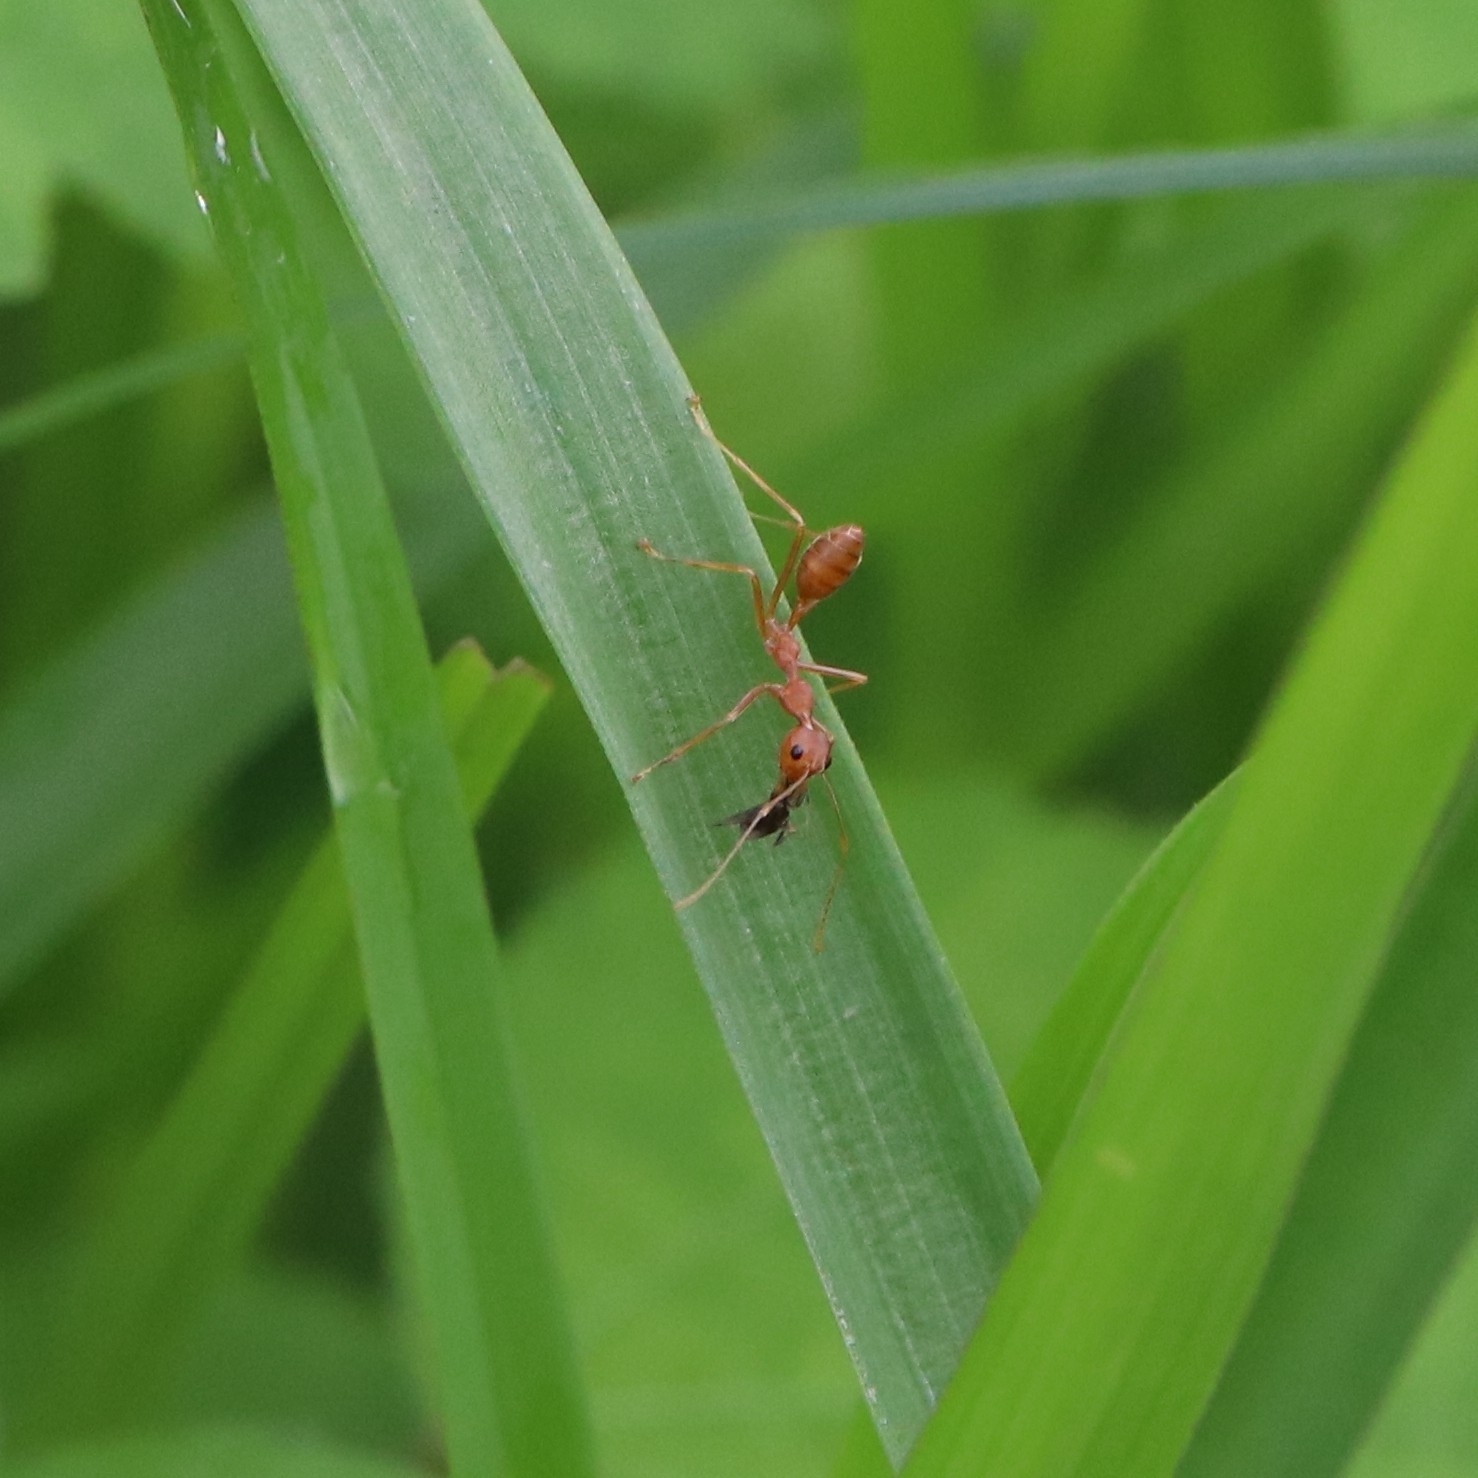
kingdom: Animalia
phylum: Arthropoda
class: Insecta
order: Hymenoptera
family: Formicidae
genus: Oecophylla
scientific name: Oecophylla smaragdina
